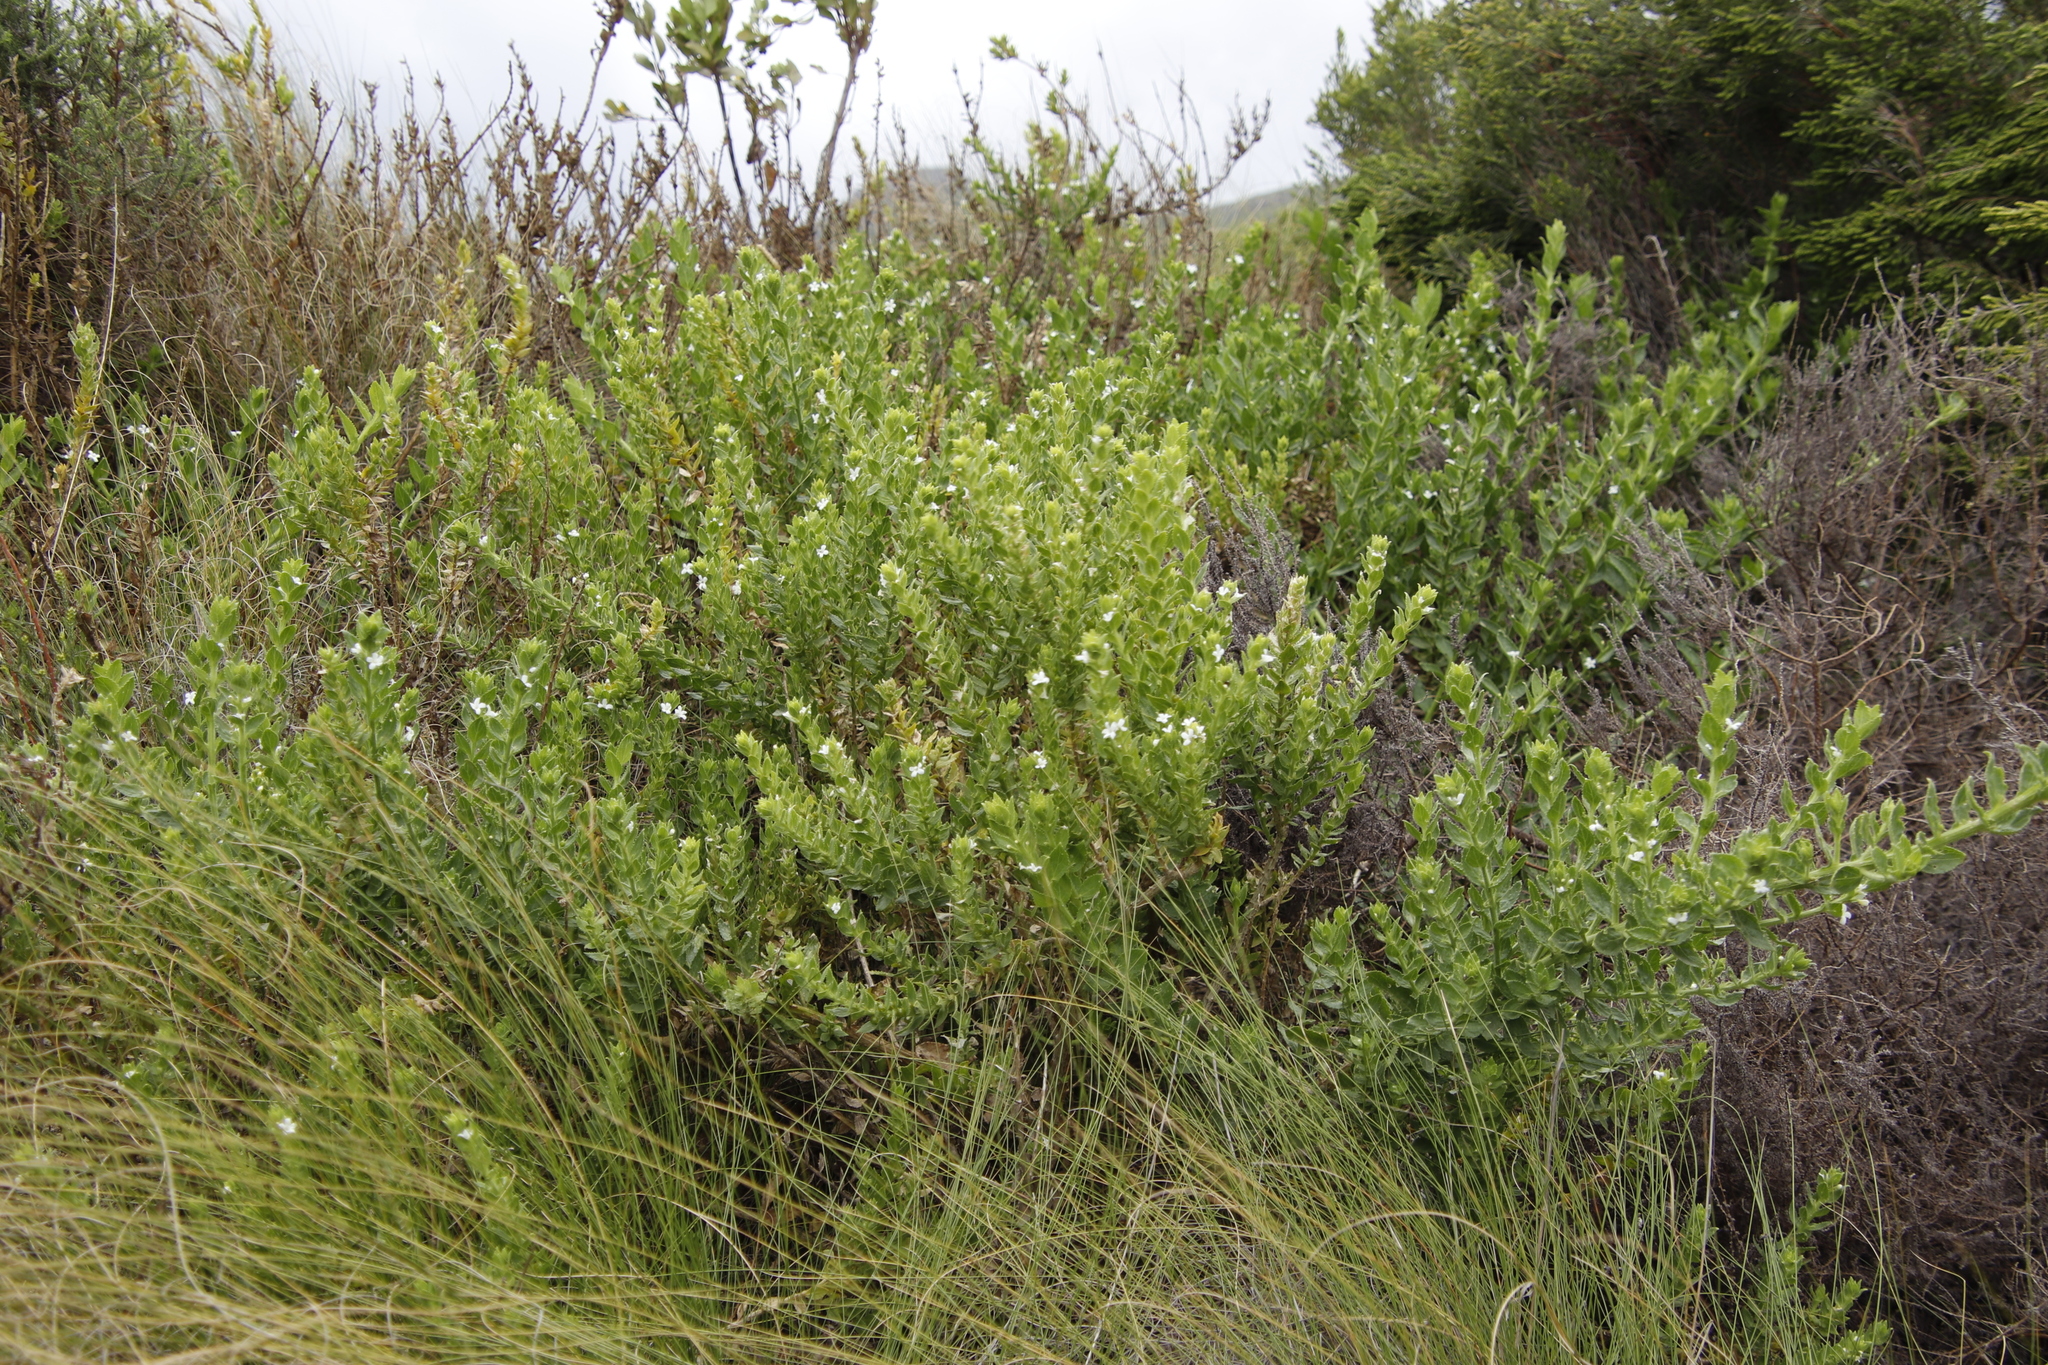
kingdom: Plantae
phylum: Tracheophyta
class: Magnoliopsida
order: Lamiales
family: Scrophulariaceae
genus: Oftia
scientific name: Oftia africana
